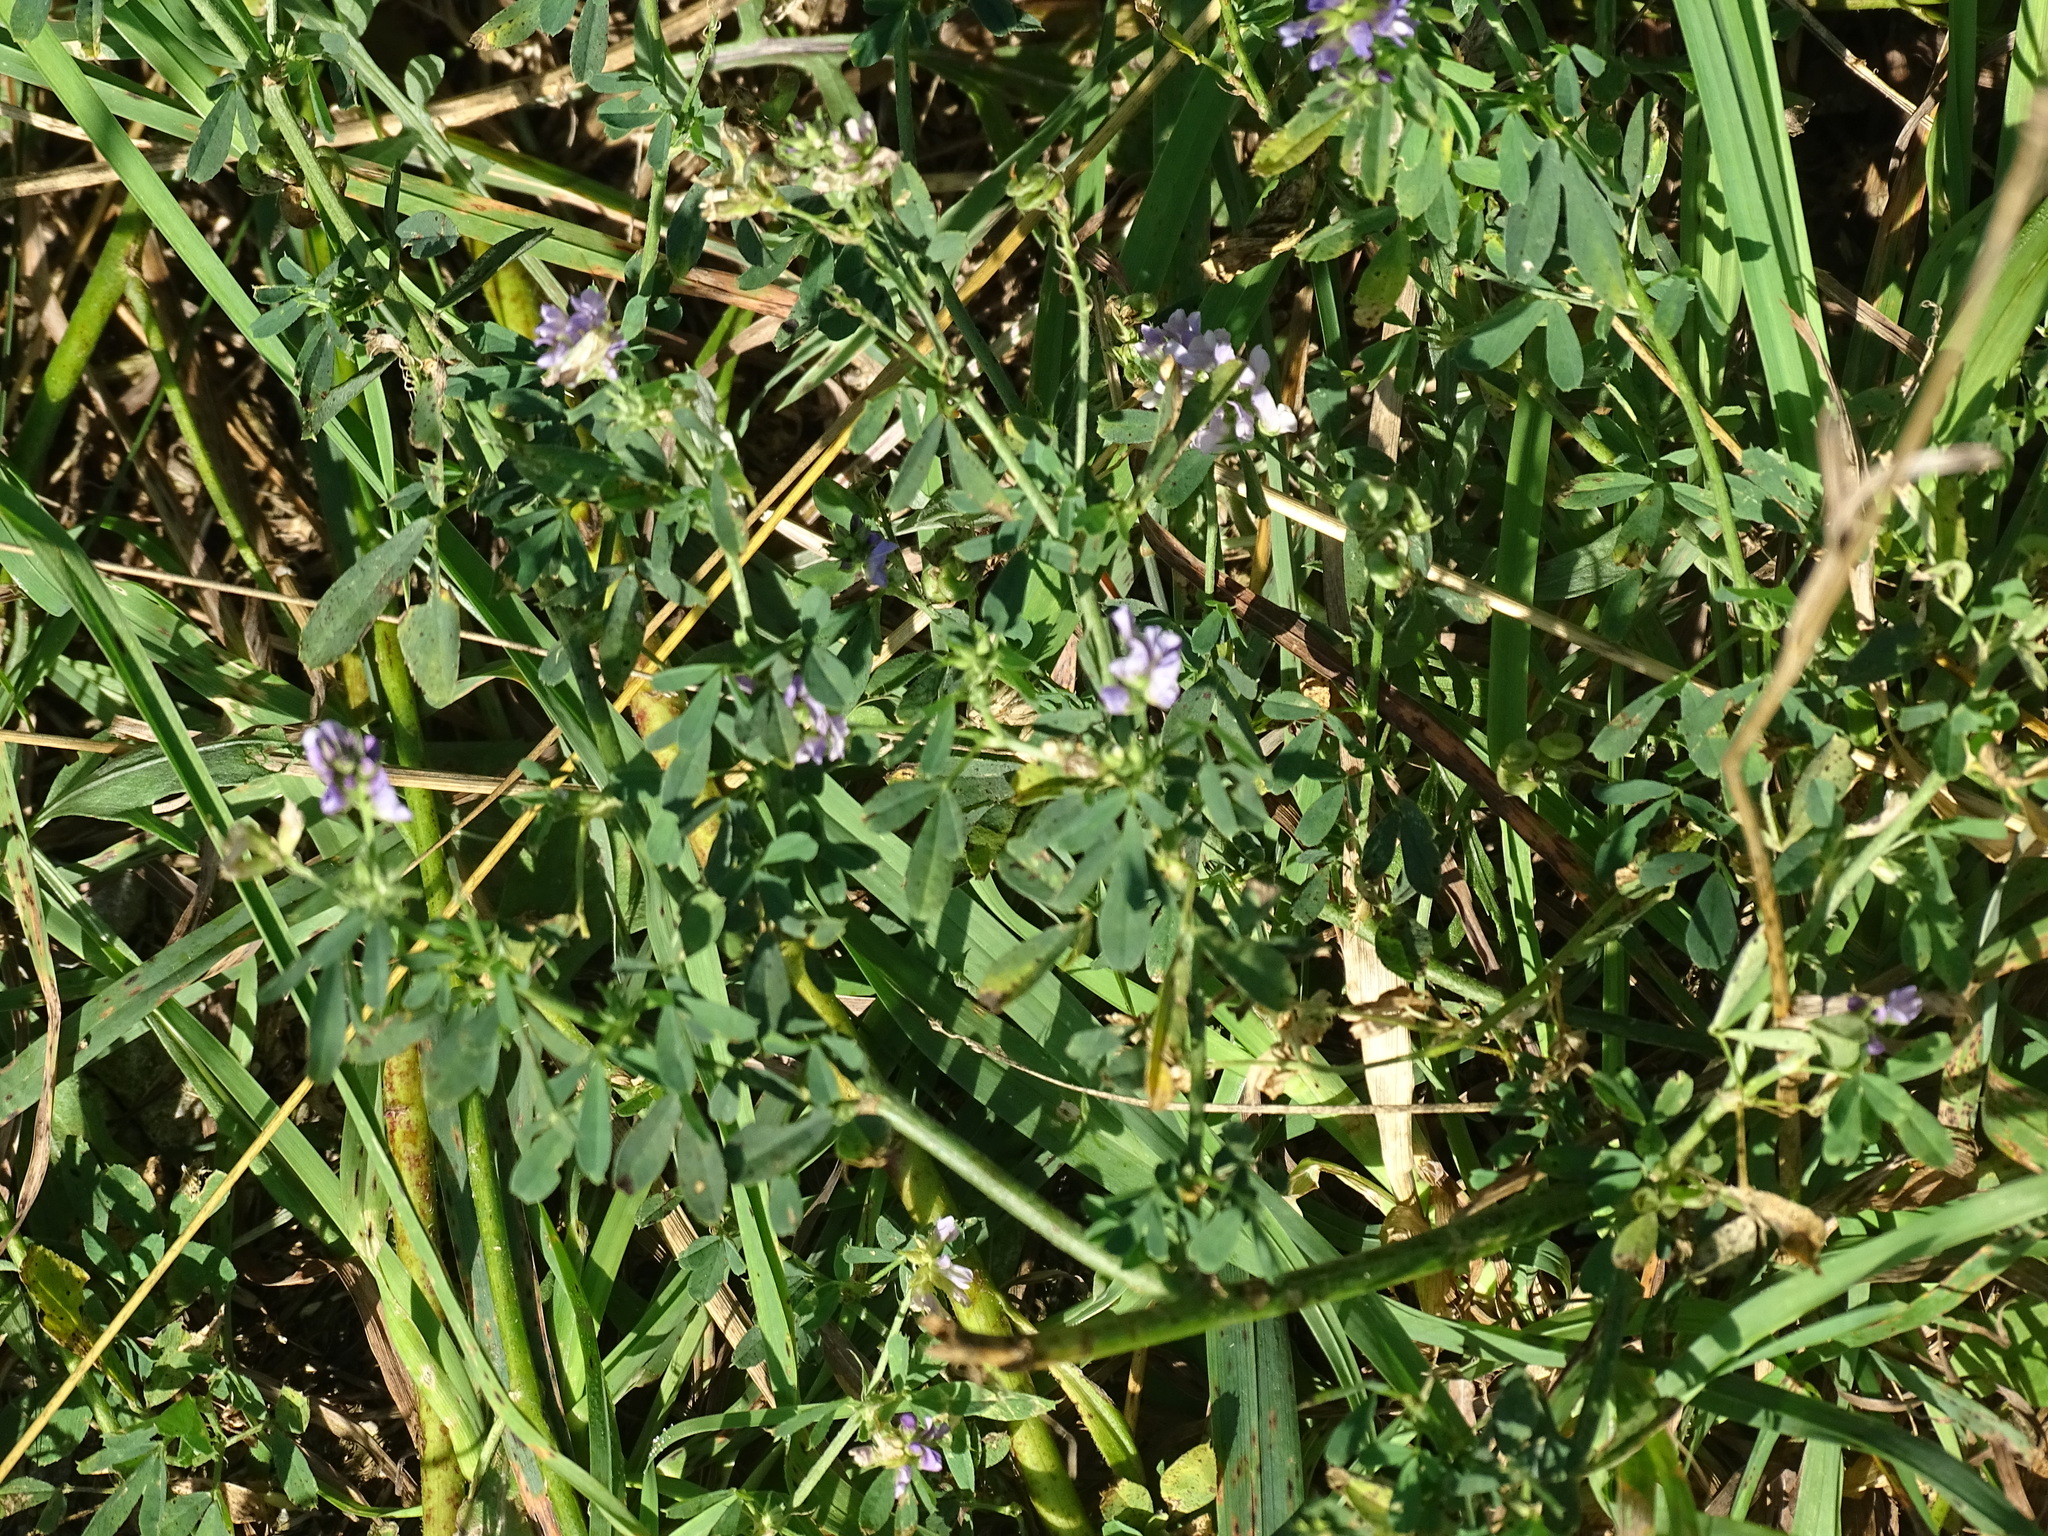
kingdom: Plantae
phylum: Tracheophyta
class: Magnoliopsida
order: Fabales
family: Fabaceae
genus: Medicago
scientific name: Medicago sativa
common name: Alfalfa
